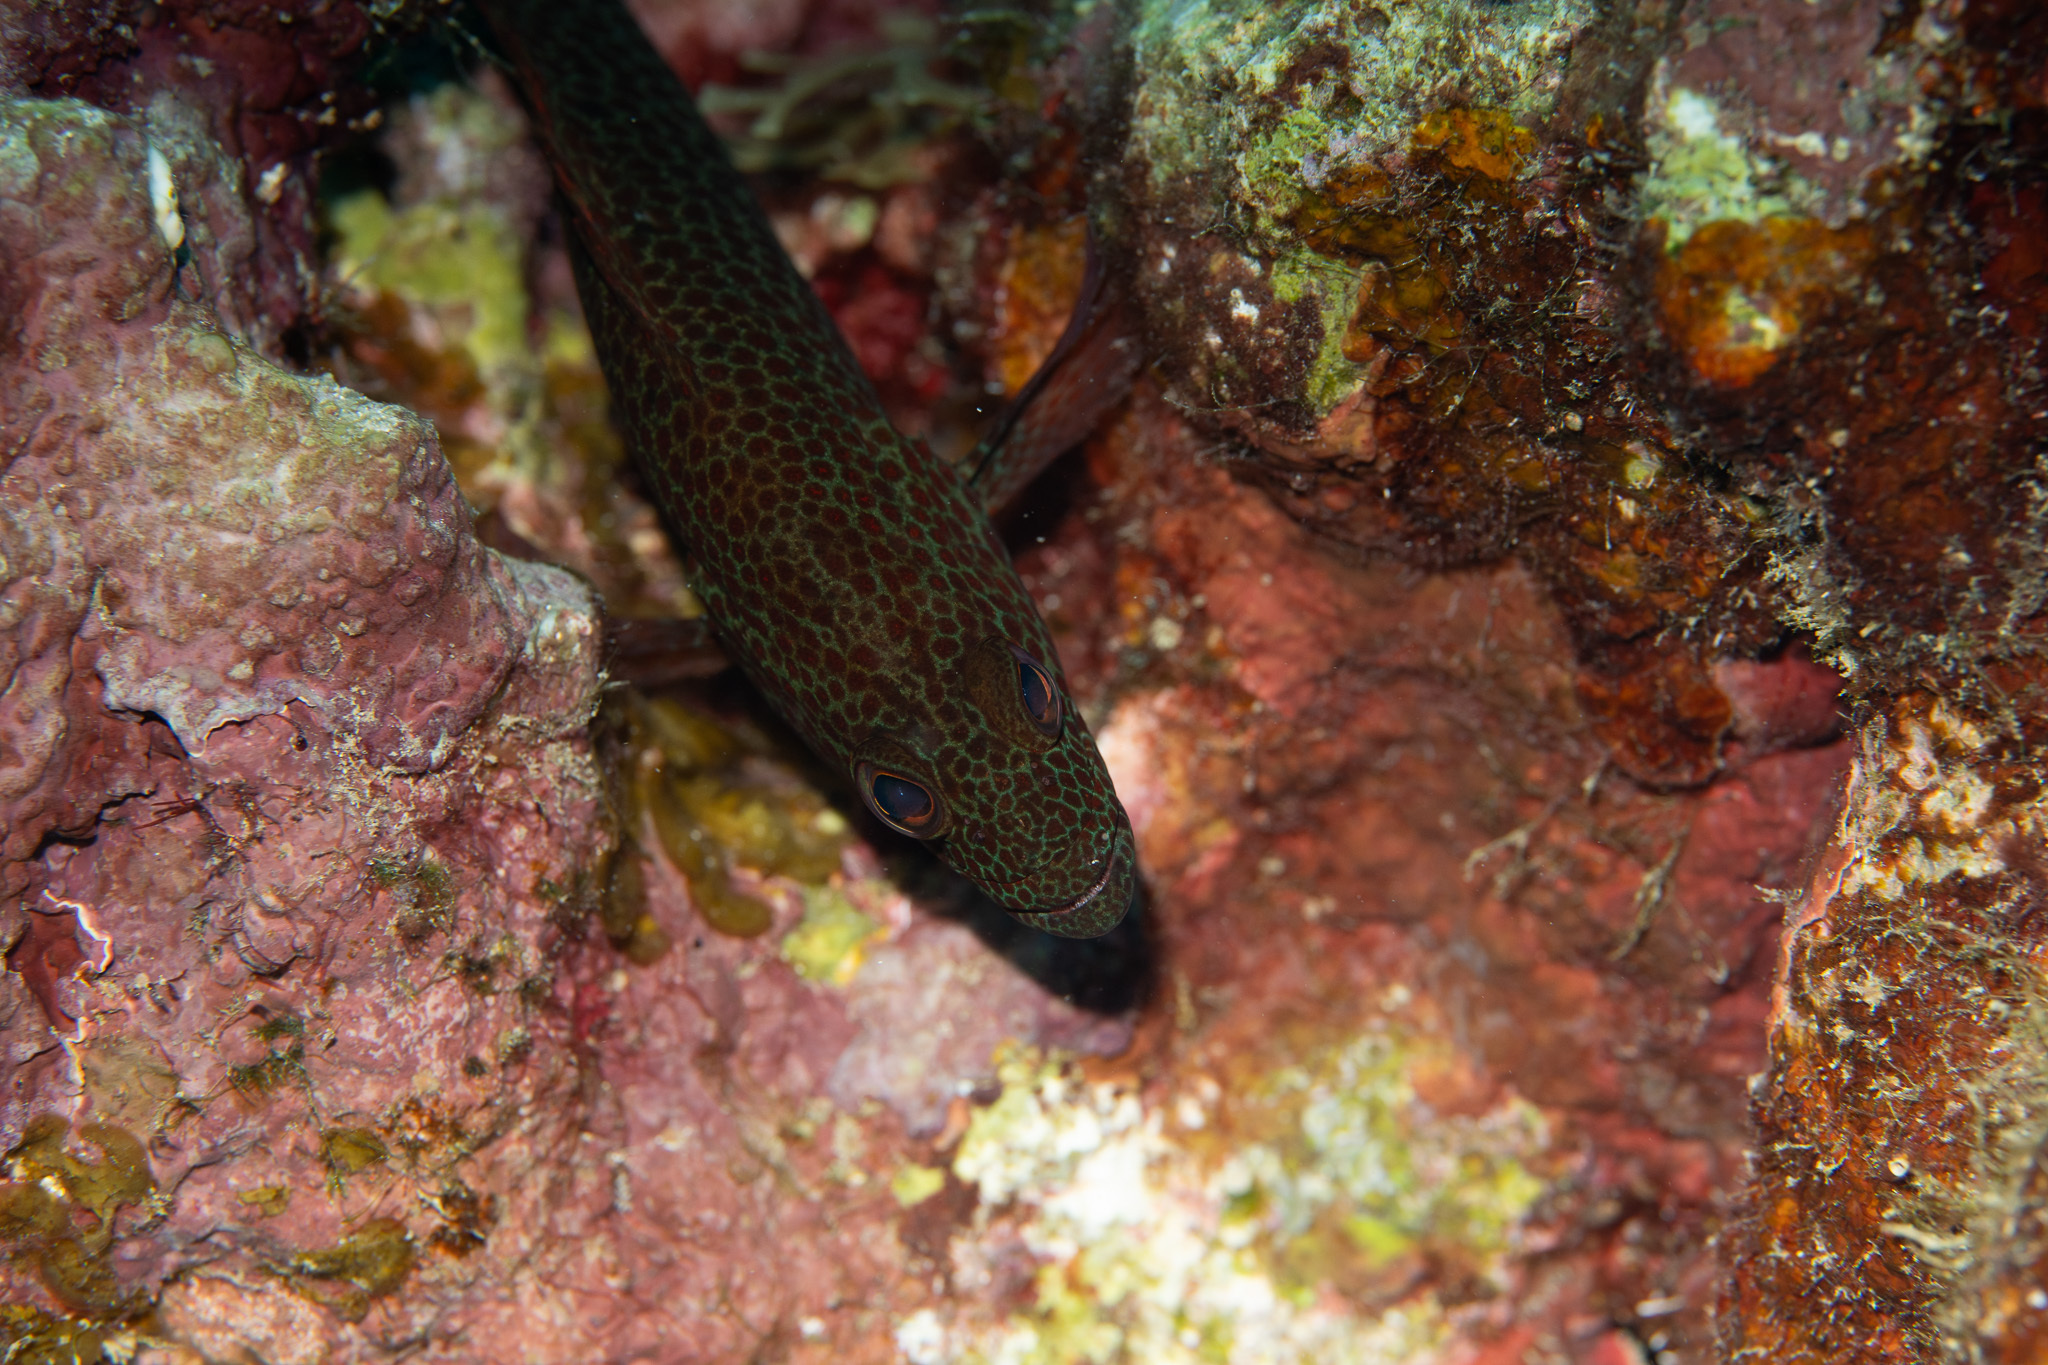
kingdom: Animalia
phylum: Chordata
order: Perciformes
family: Serranidae
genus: Cephalopholis
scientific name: Cephalopholis cruentata
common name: Graysby
